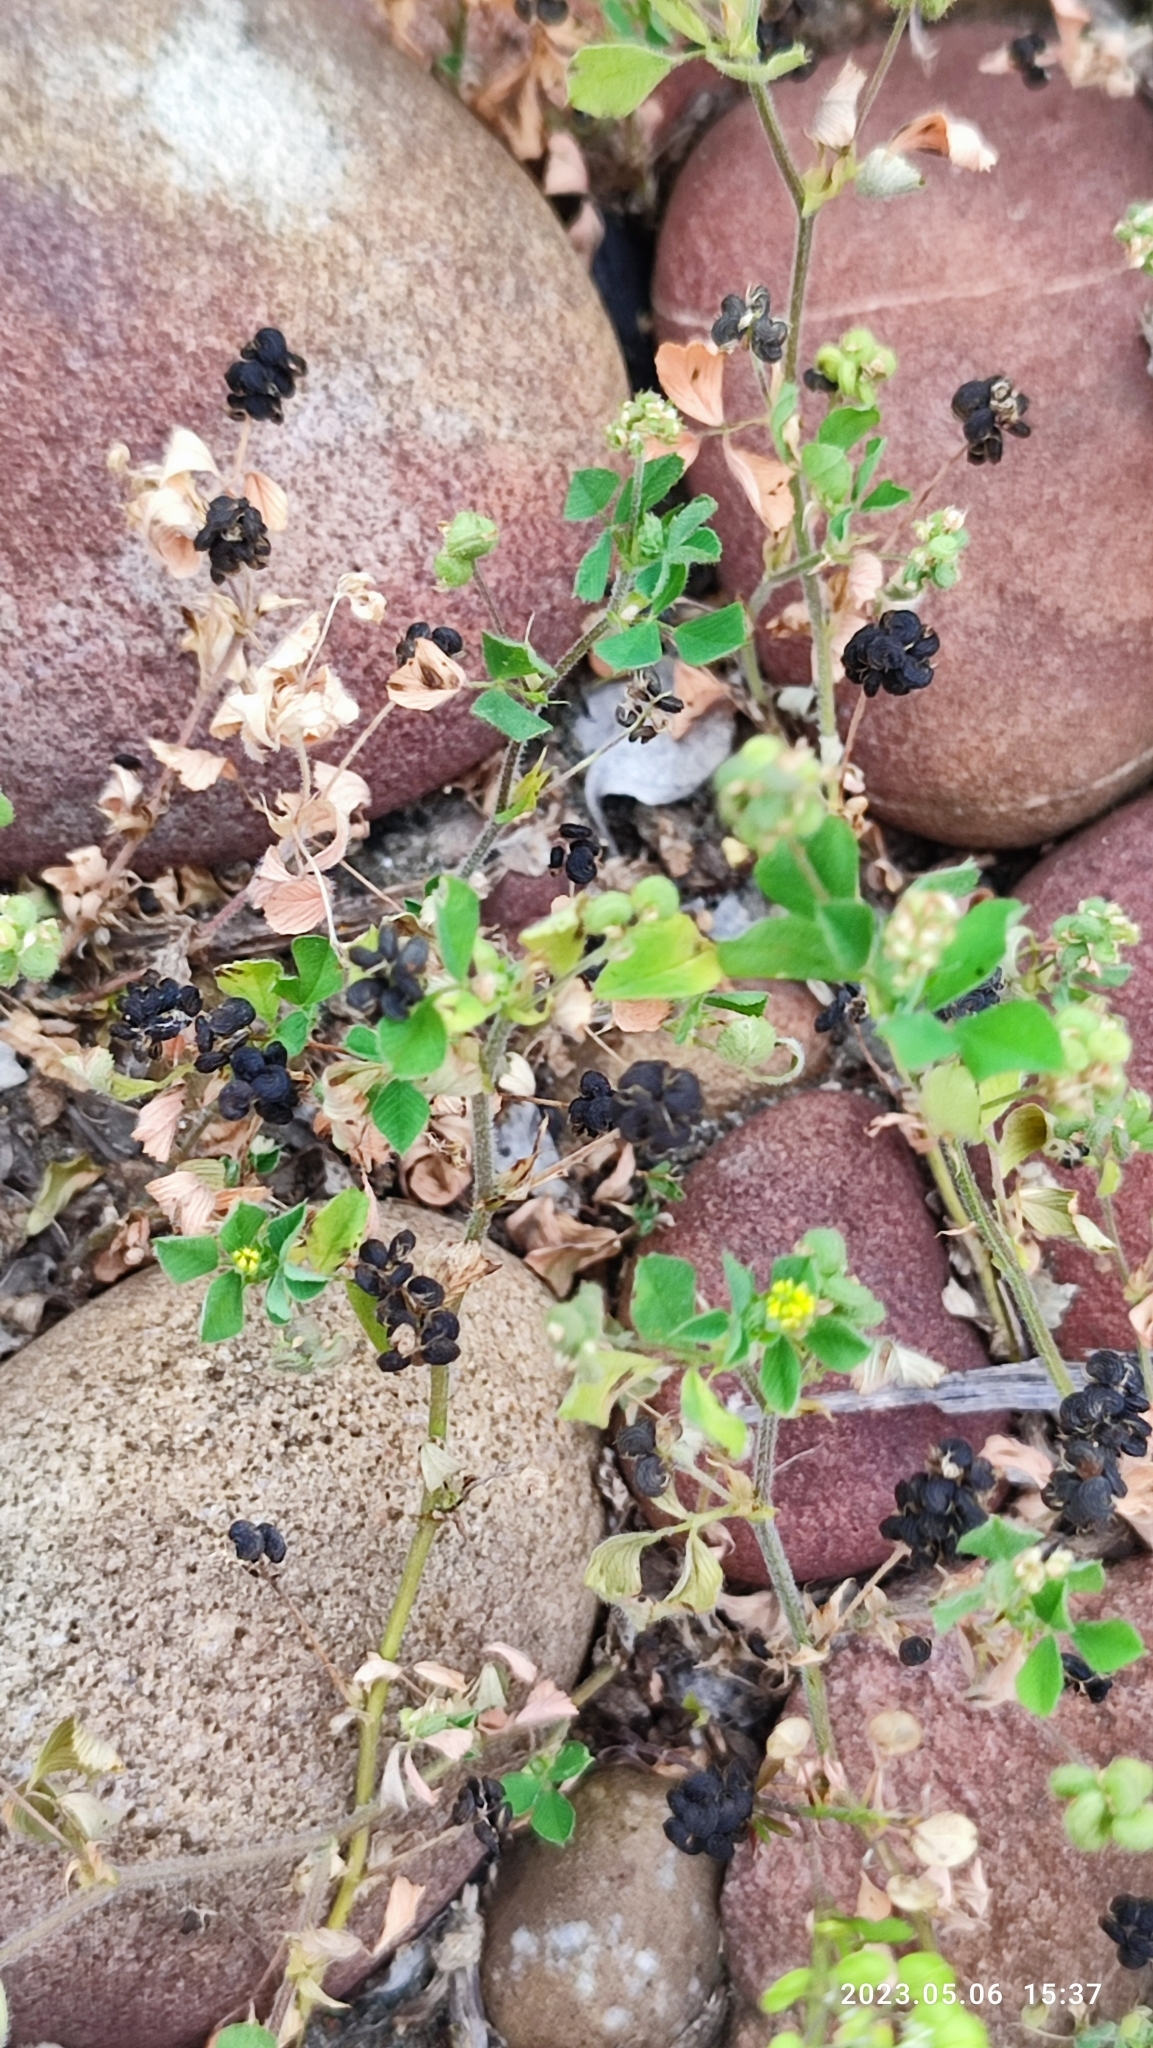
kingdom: Plantae
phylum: Tracheophyta
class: Magnoliopsida
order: Fabales
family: Fabaceae
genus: Medicago
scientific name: Medicago lupulina
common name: Black medick
